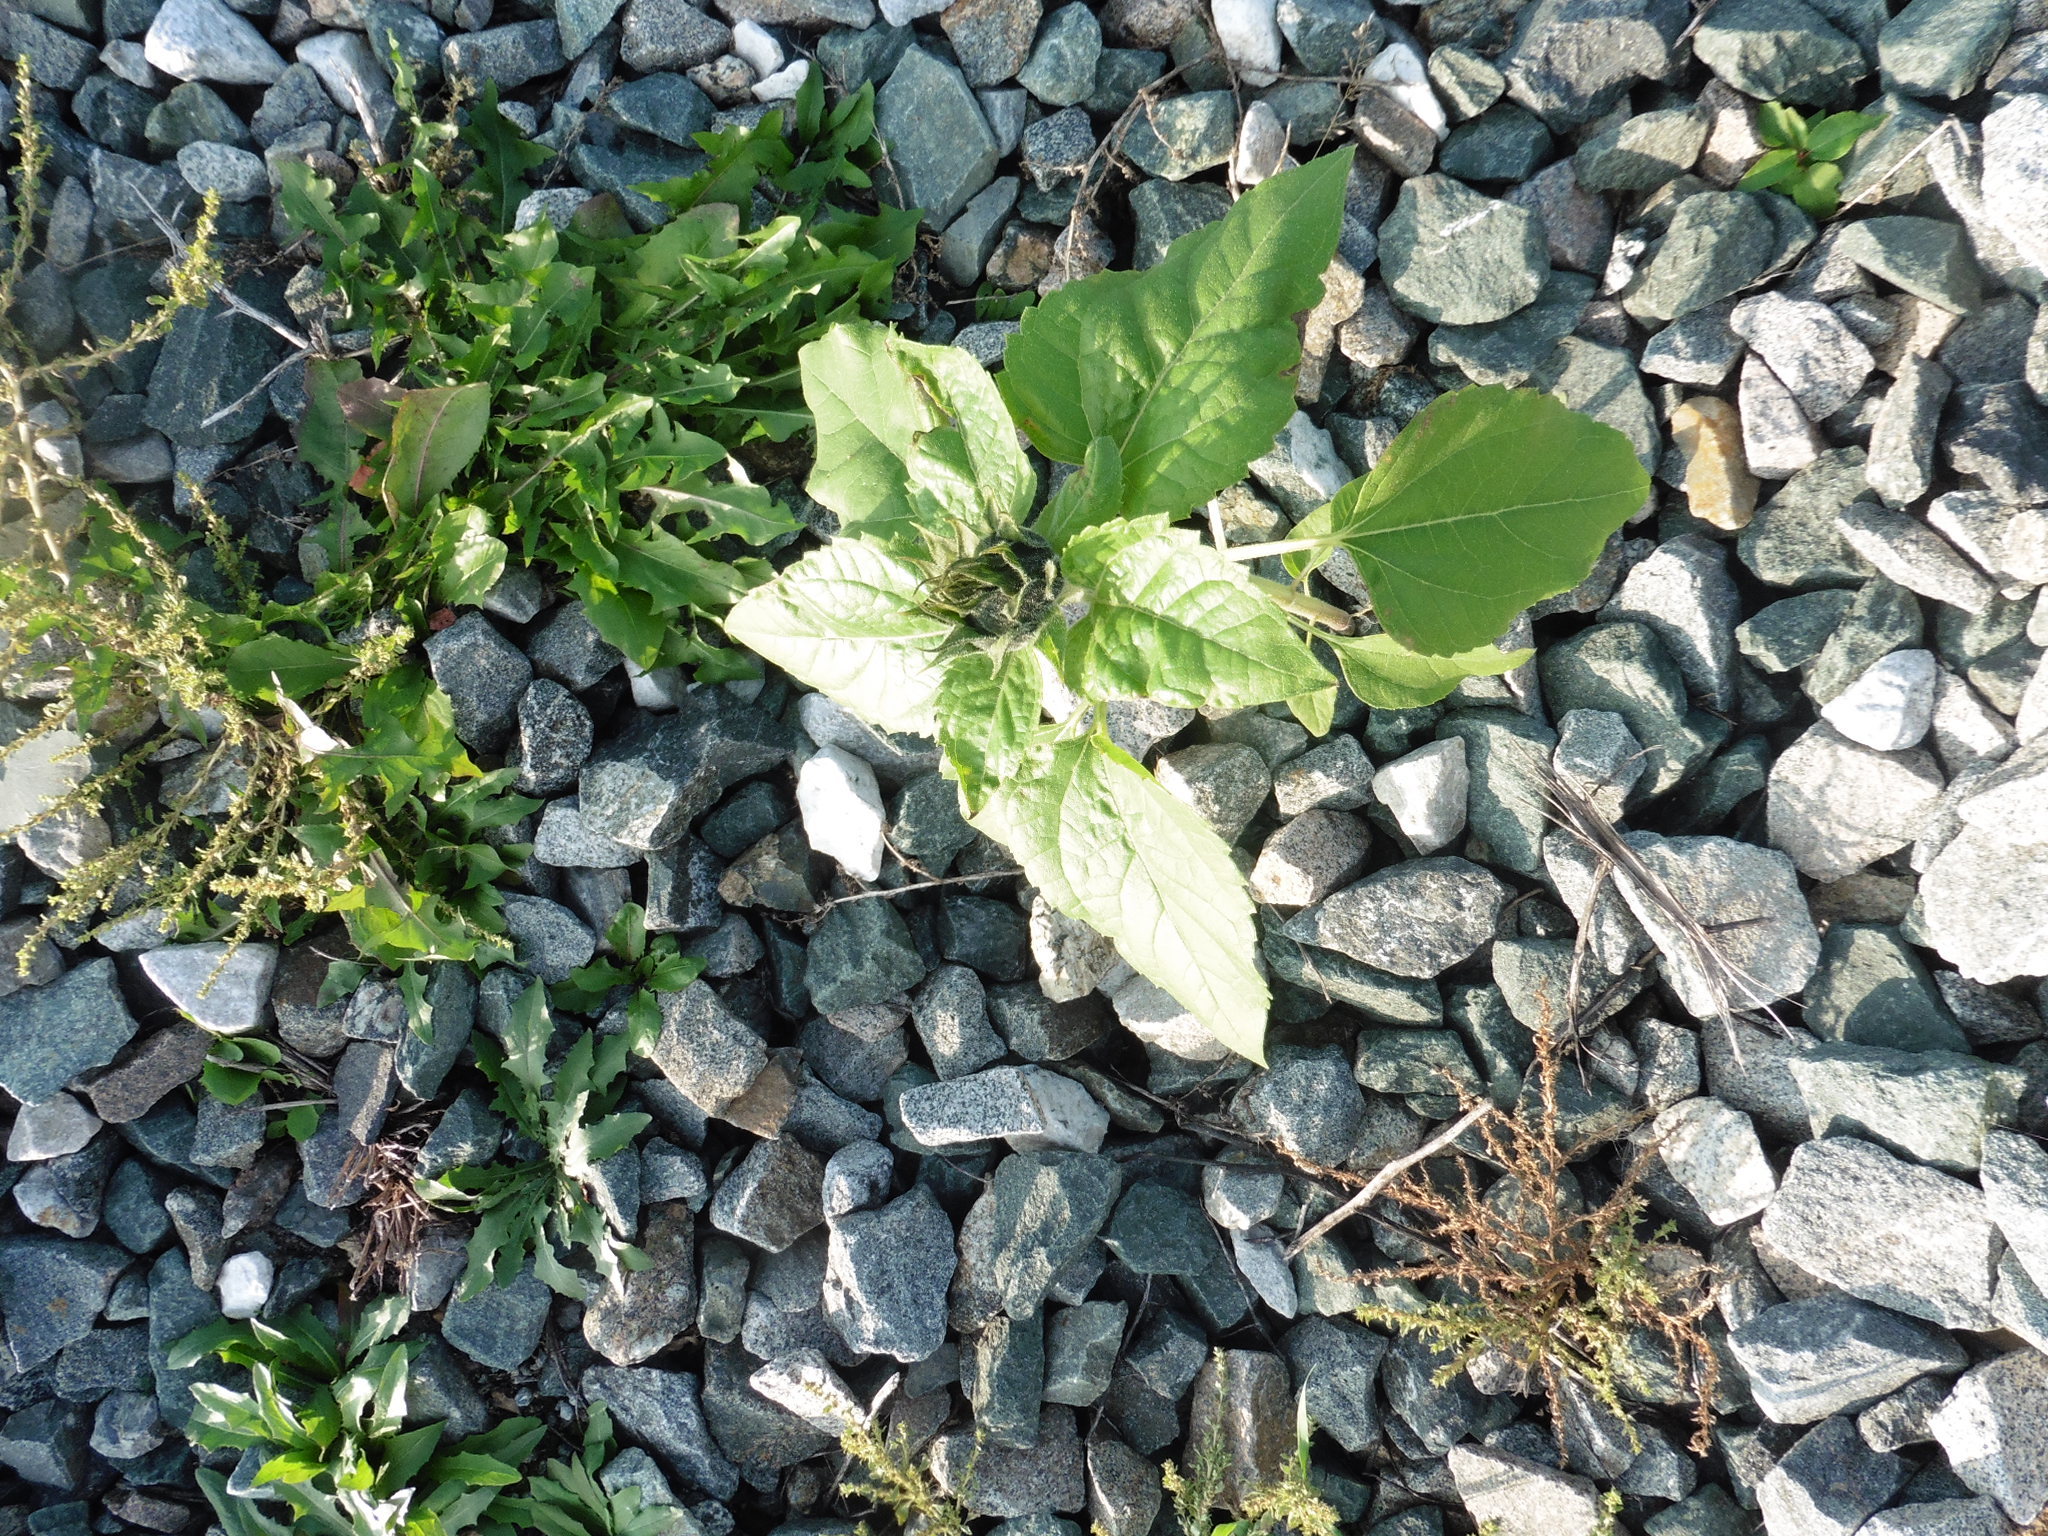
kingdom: Plantae
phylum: Tracheophyta
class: Magnoliopsida
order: Asterales
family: Asteraceae
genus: Helianthus
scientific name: Helianthus annuus
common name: Sunflower
